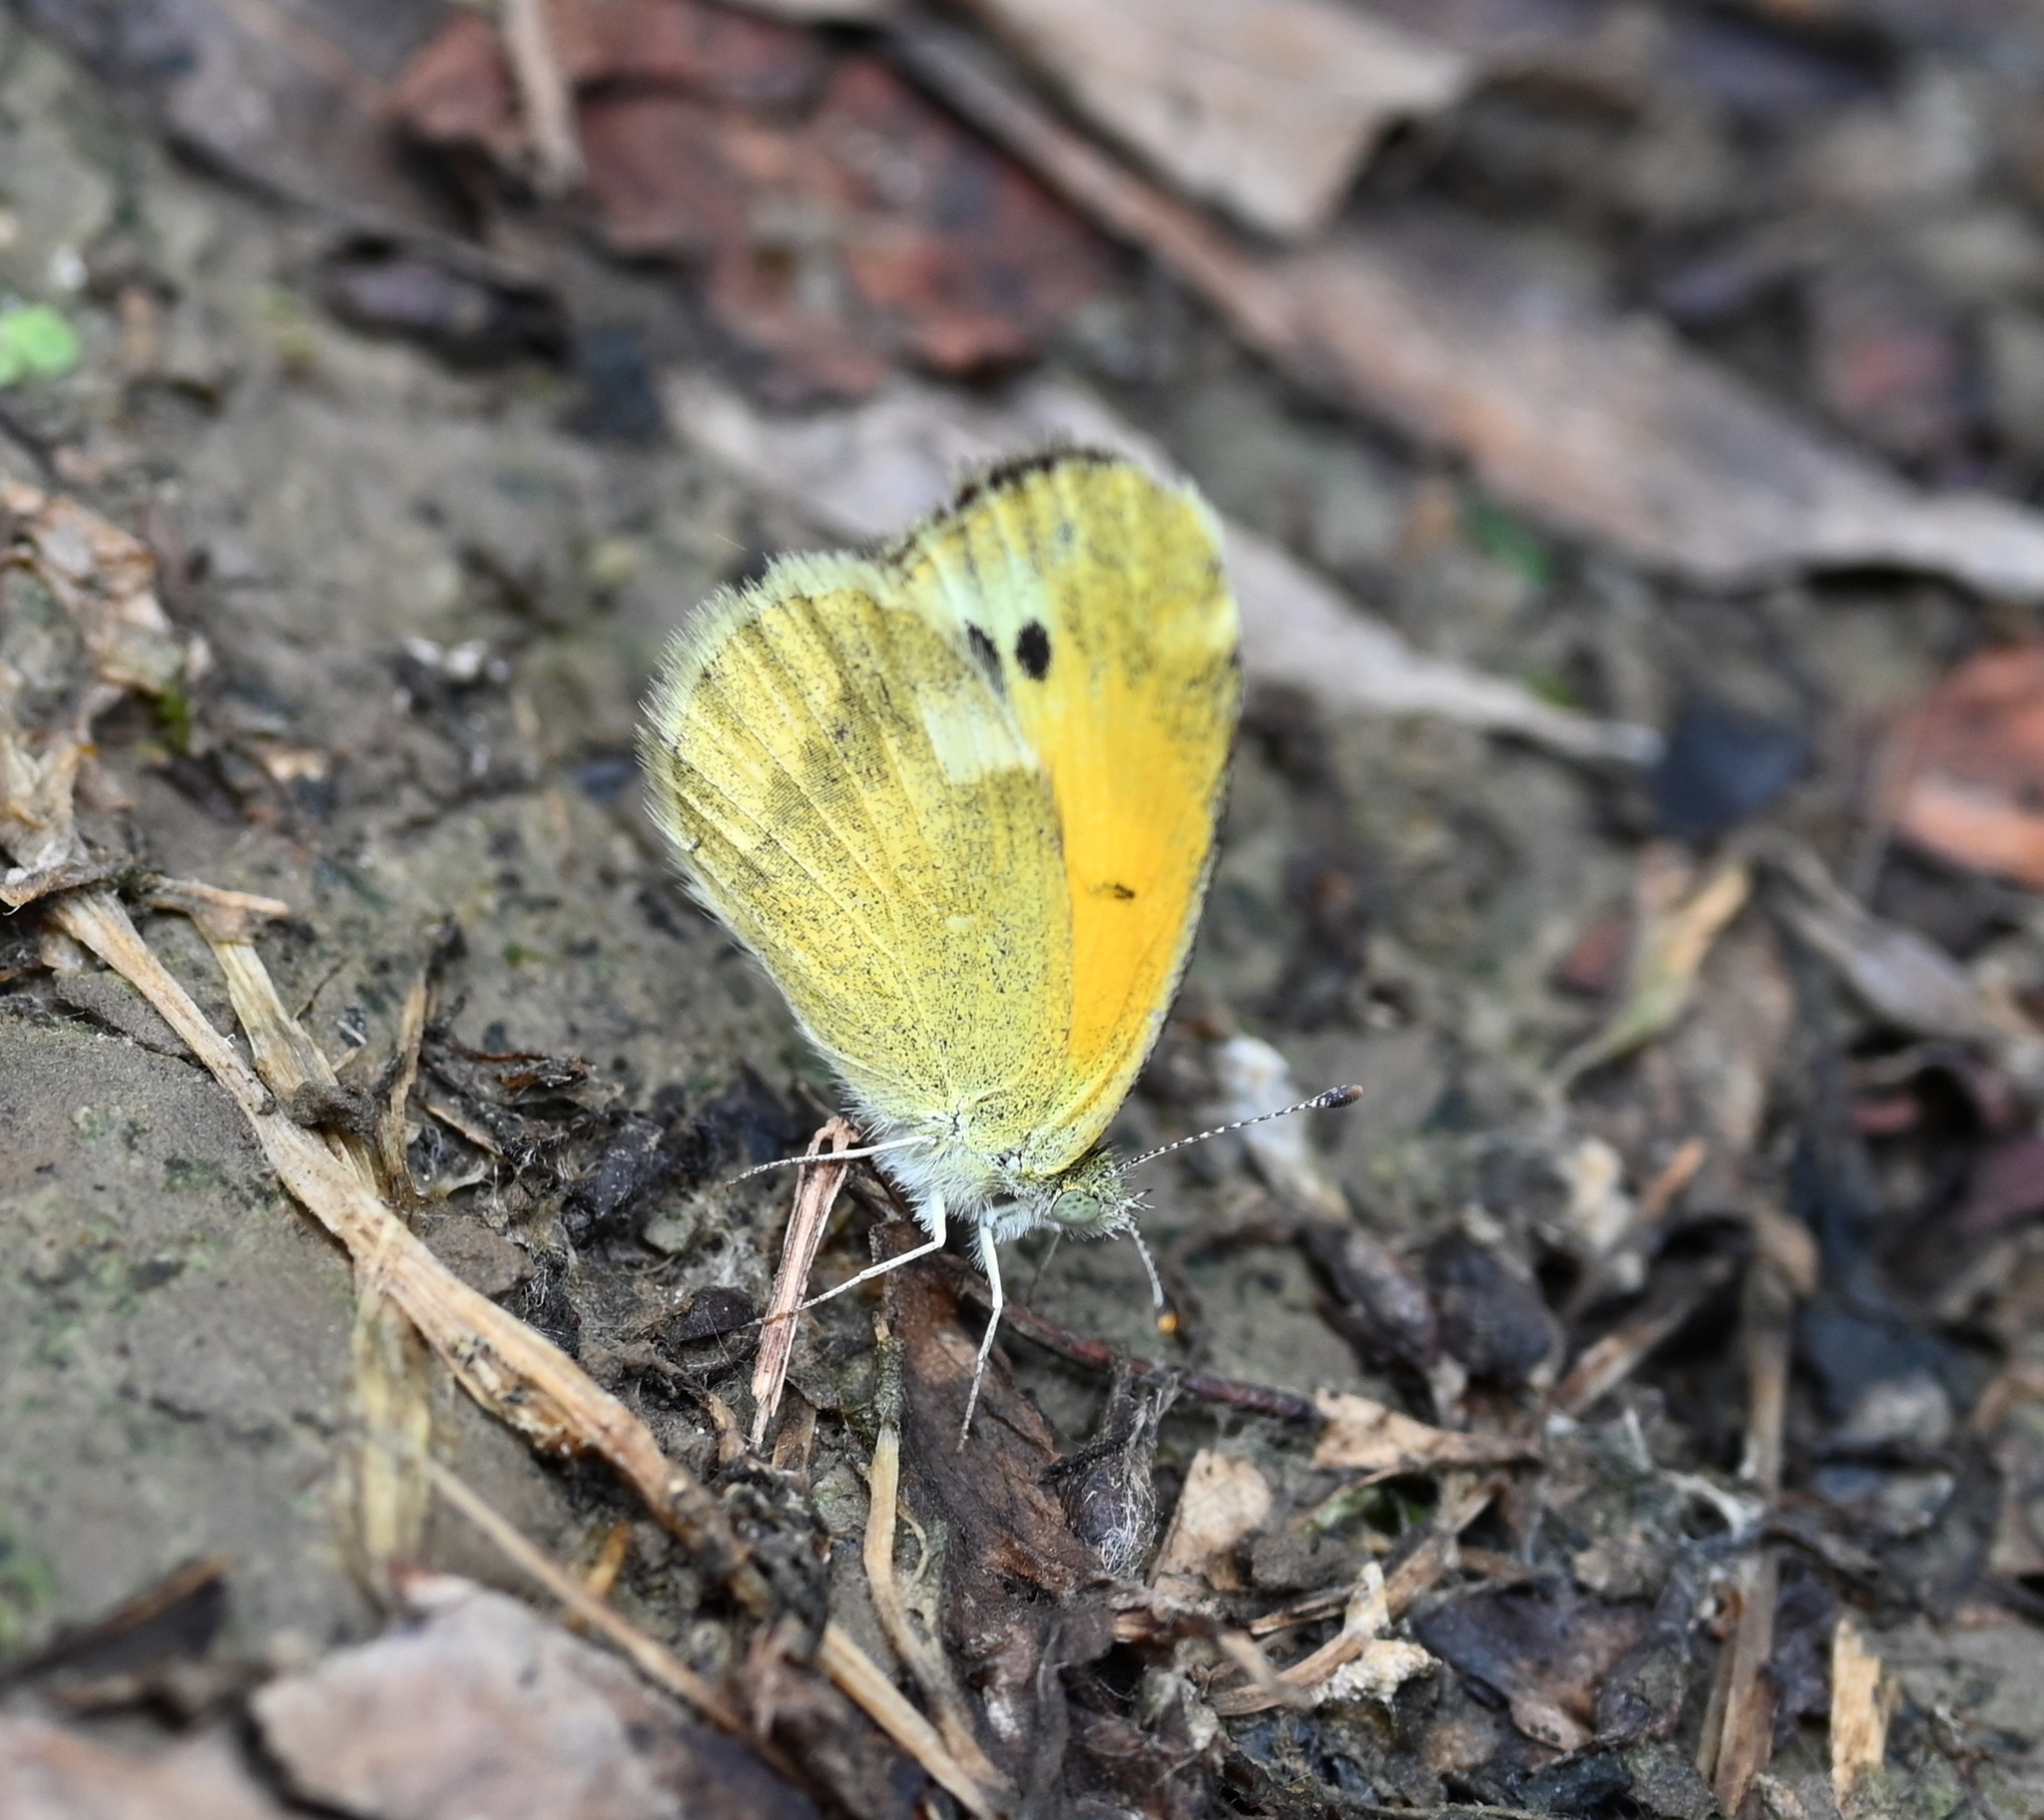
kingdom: Animalia
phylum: Arthropoda
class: Insecta
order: Lepidoptera
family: Pieridae
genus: Nathalis
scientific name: Nathalis iole
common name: Dainty sulphur
